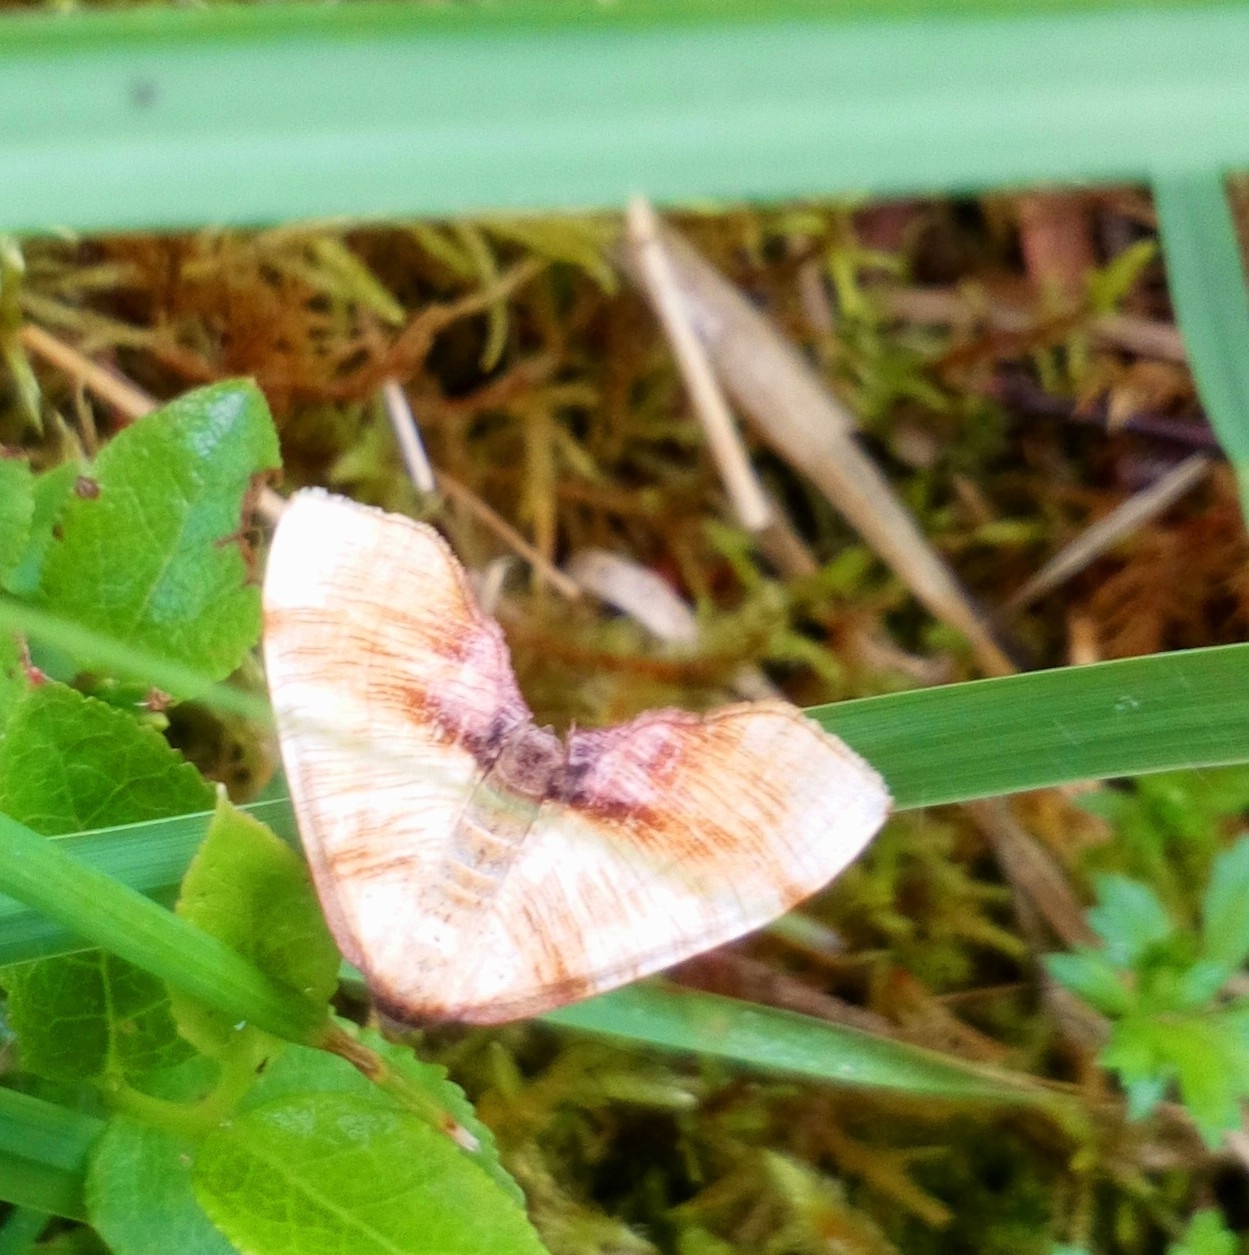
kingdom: Animalia
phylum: Arthropoda
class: Insecta
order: Lepidoptera
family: Geometridae
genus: Plagodis
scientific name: Plagodis dolabraria
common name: Scorched wing
